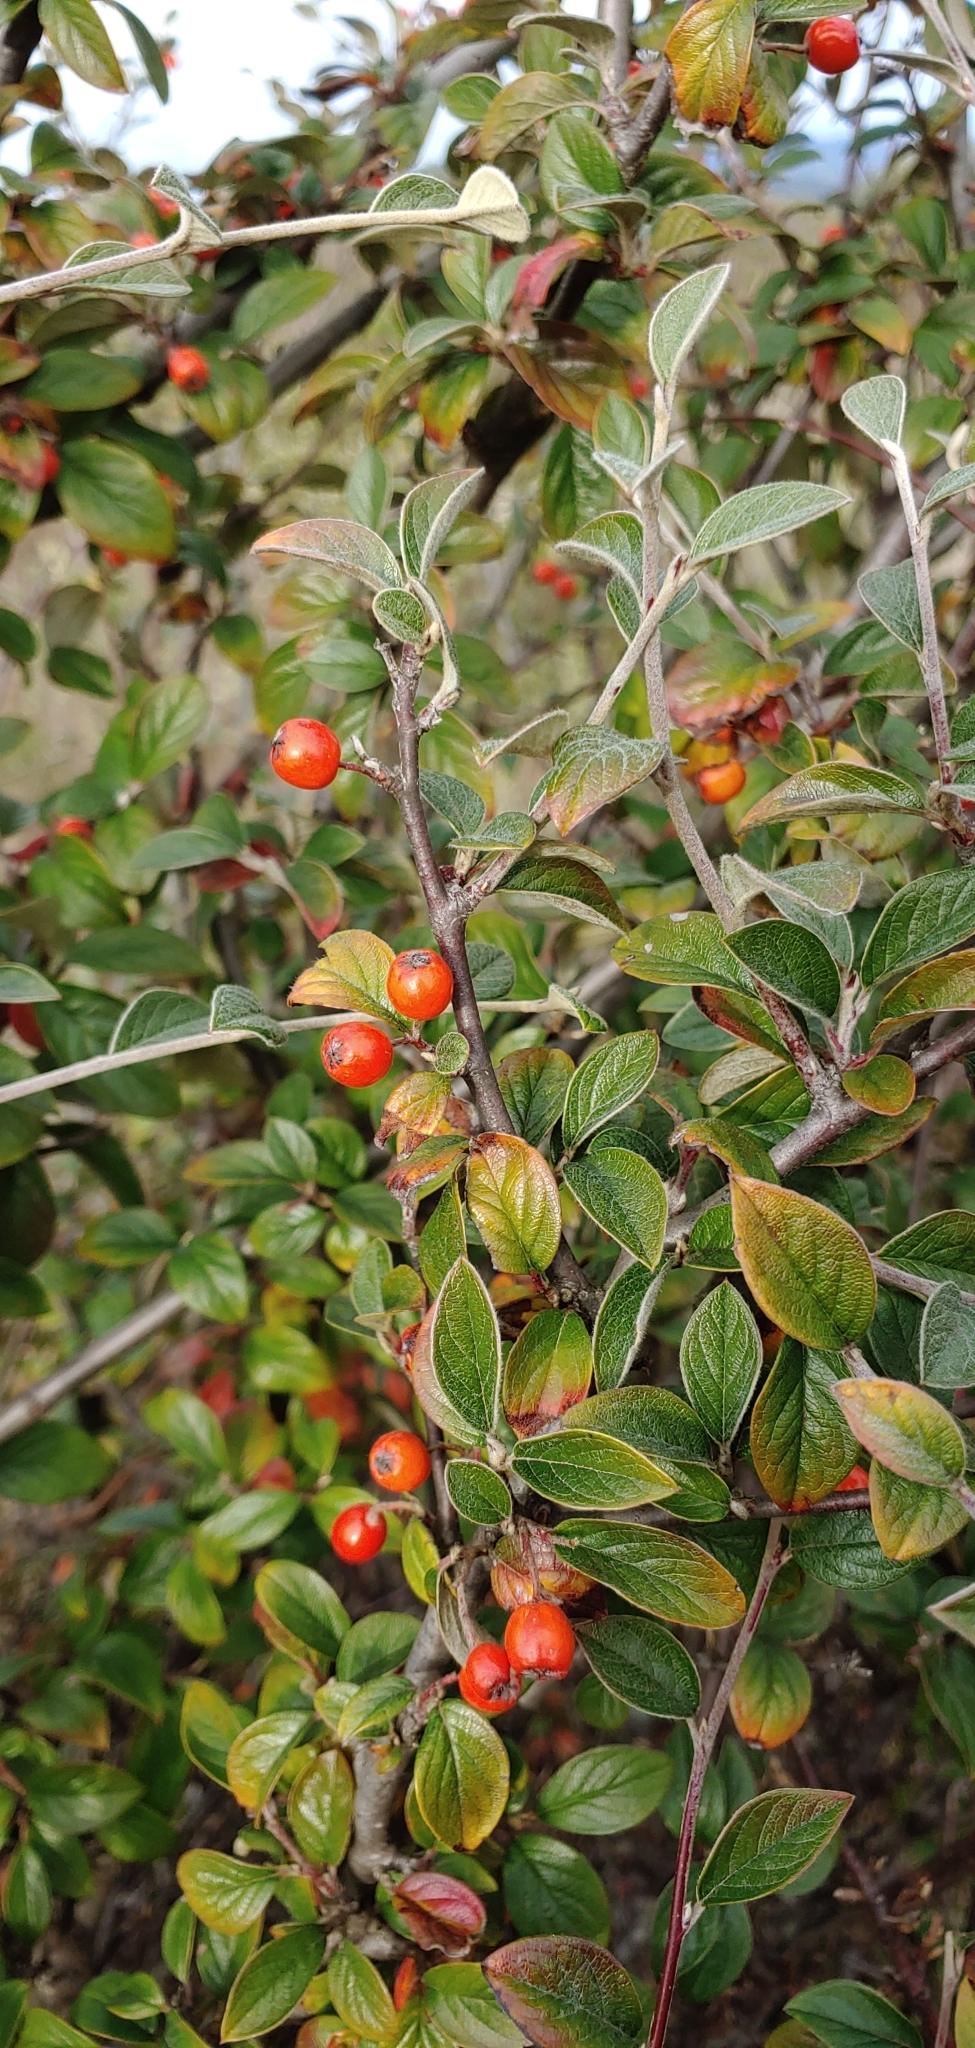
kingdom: Plantae
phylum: Tracheophyta
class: Magnoliopsida
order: Rosales
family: Rosaceae
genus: Cotoneaster
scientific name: Cotoneaster franchetii
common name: Franchet's cotoneaster
